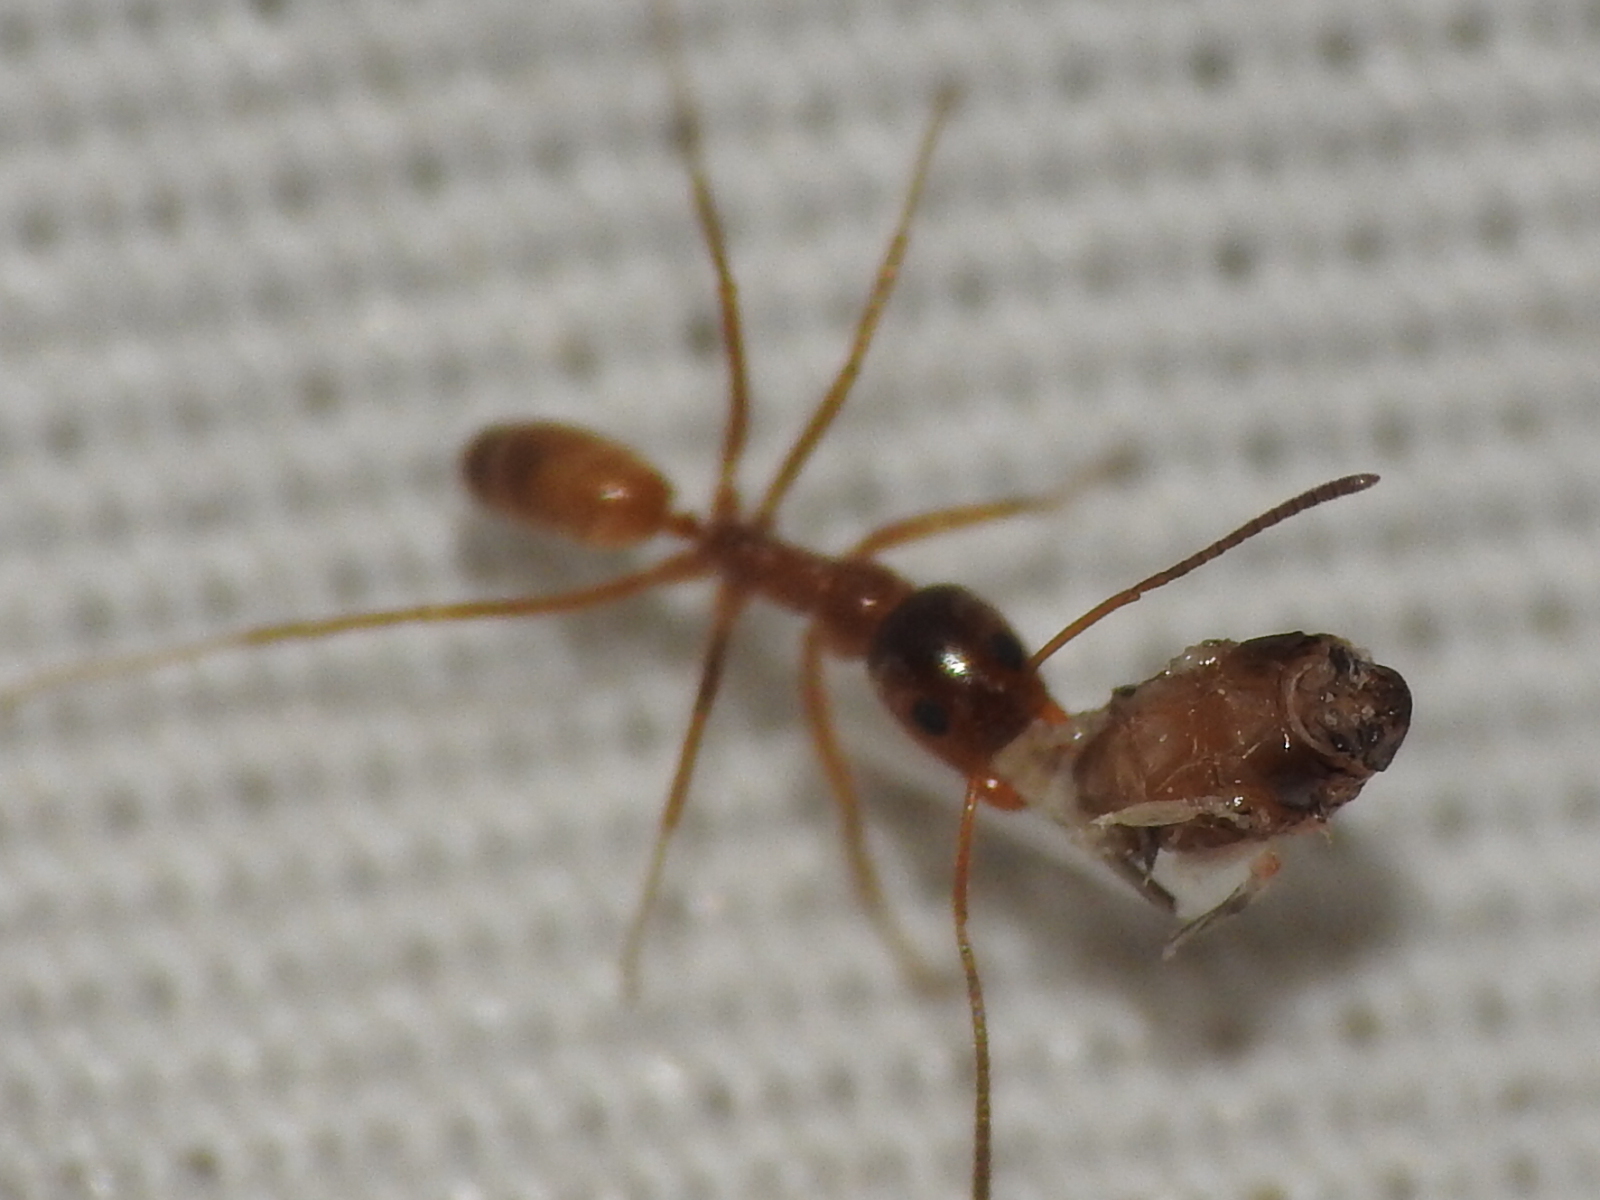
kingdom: Animalia
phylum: Arthropoda
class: Insecta
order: Hymenoptera
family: Formicidae
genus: Dorymyrmex
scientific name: Dorymyrmex flavus
